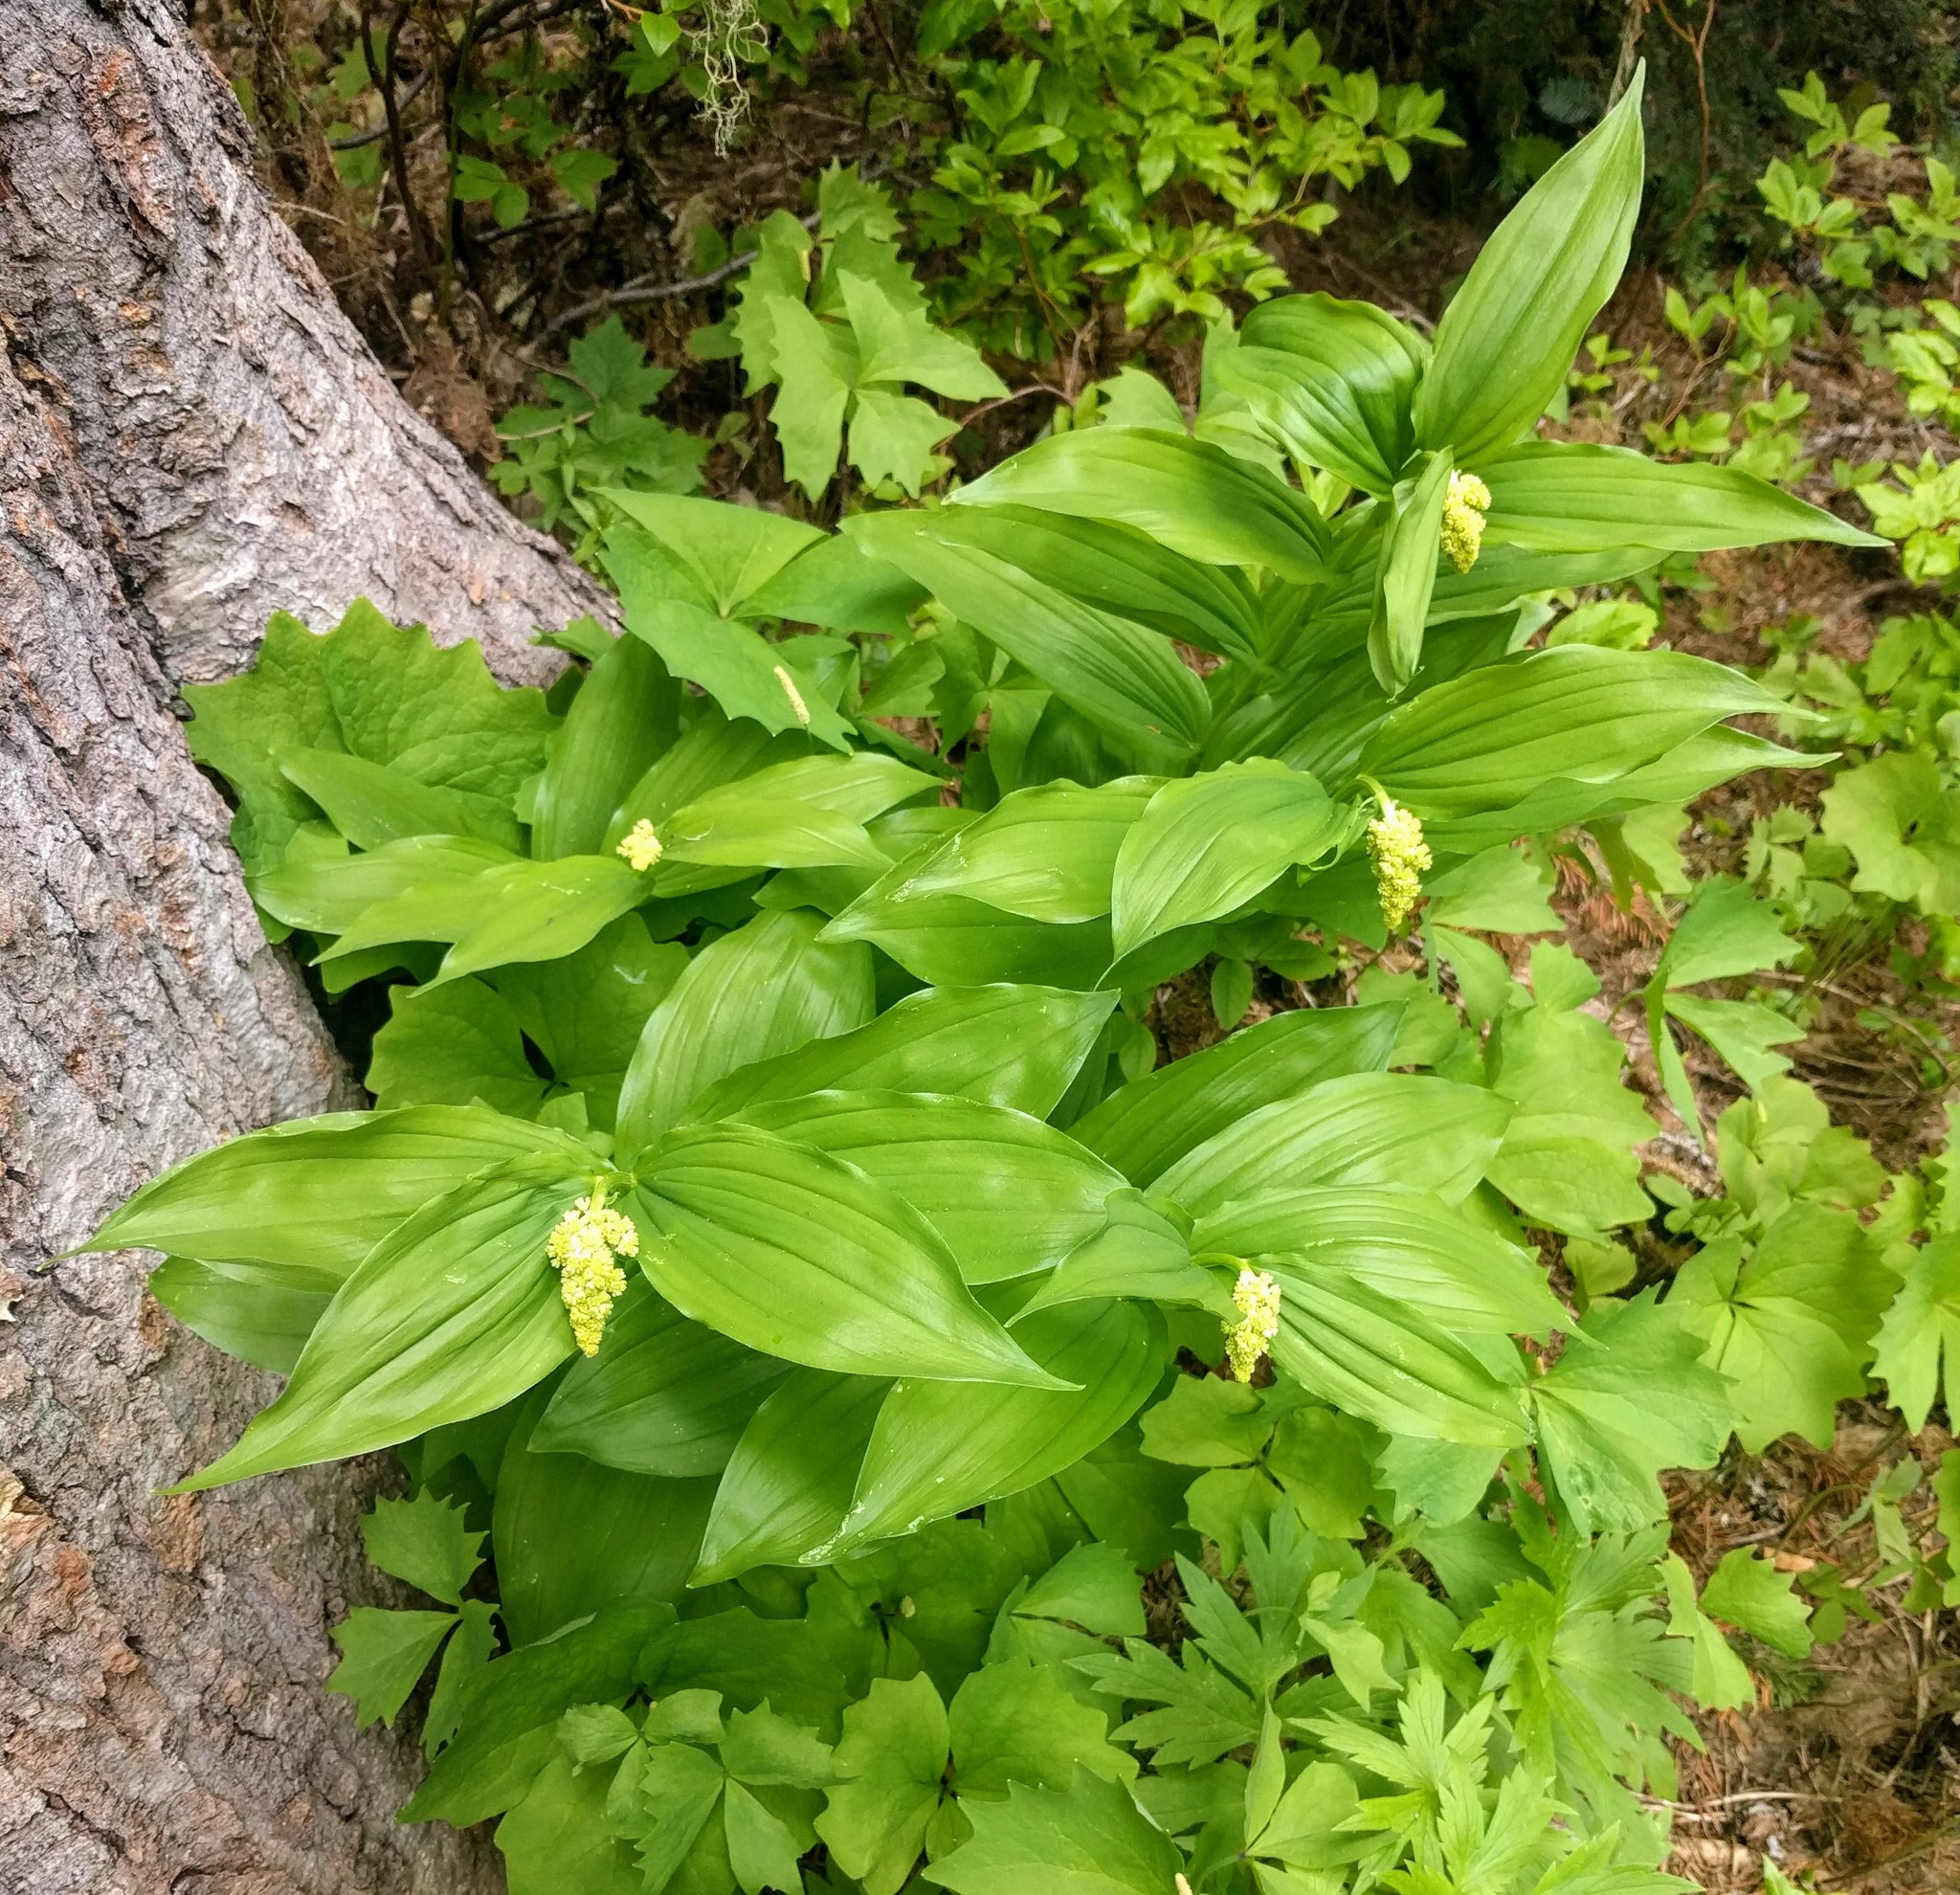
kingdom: Plantae
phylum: Tracheophyta
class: Liliopsida
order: Asparagales
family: Asparagaceae
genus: Maianthemum
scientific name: Maianthemum racemosum
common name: False spikenard
